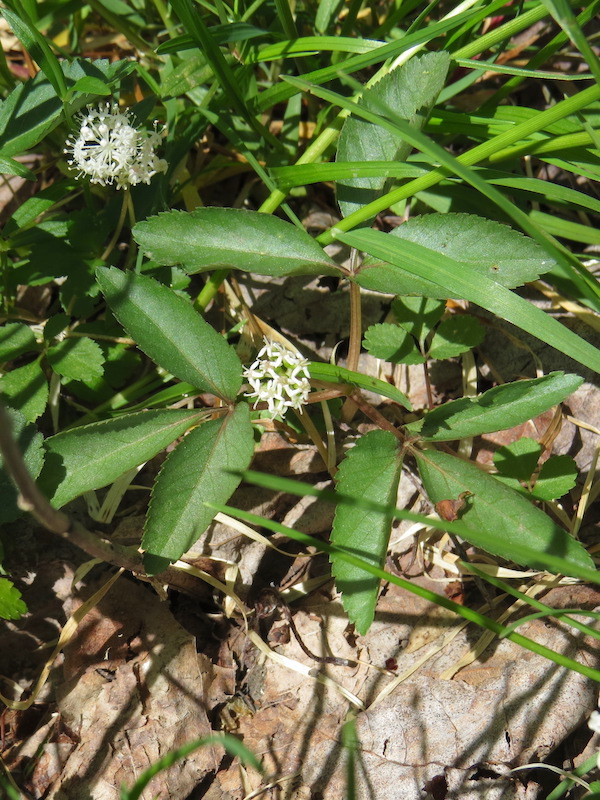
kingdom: Plantae
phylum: Tracheophyta
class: Magnoliopsida
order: Apiales
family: Araliaceae
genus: Panax
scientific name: Panax trifolius
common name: Dwarf ginseng
